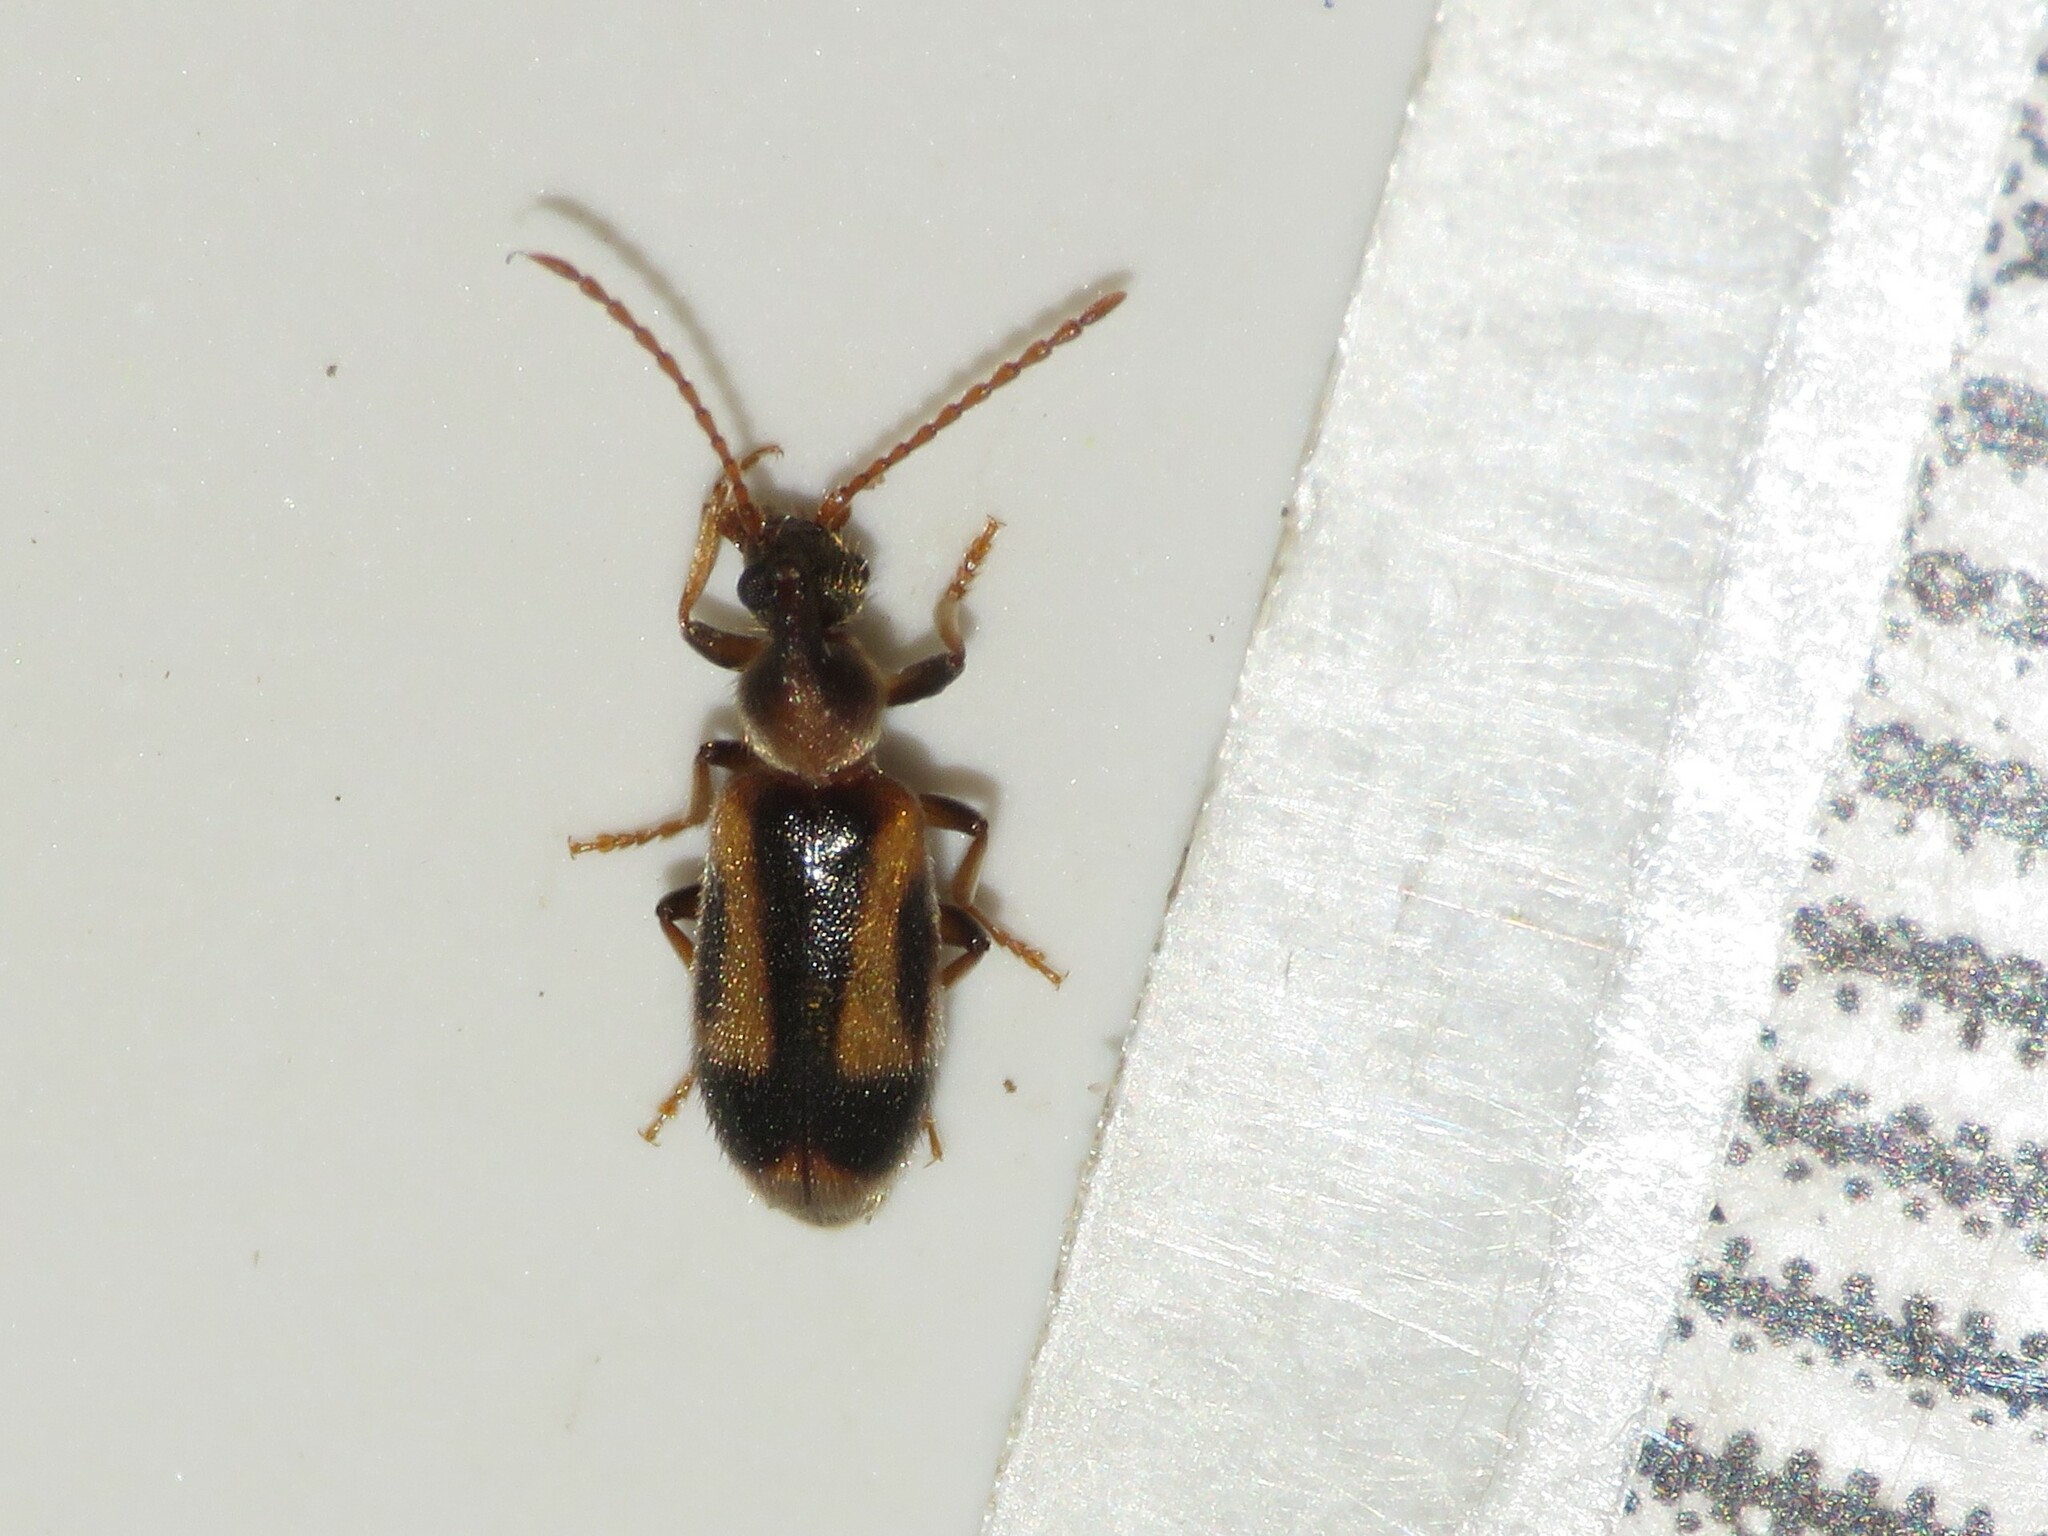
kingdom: Animalia
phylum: Arthropoda
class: Insecta
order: Coleoptera
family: Anthicidae
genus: Notoxus
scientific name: Notoxus anchora
